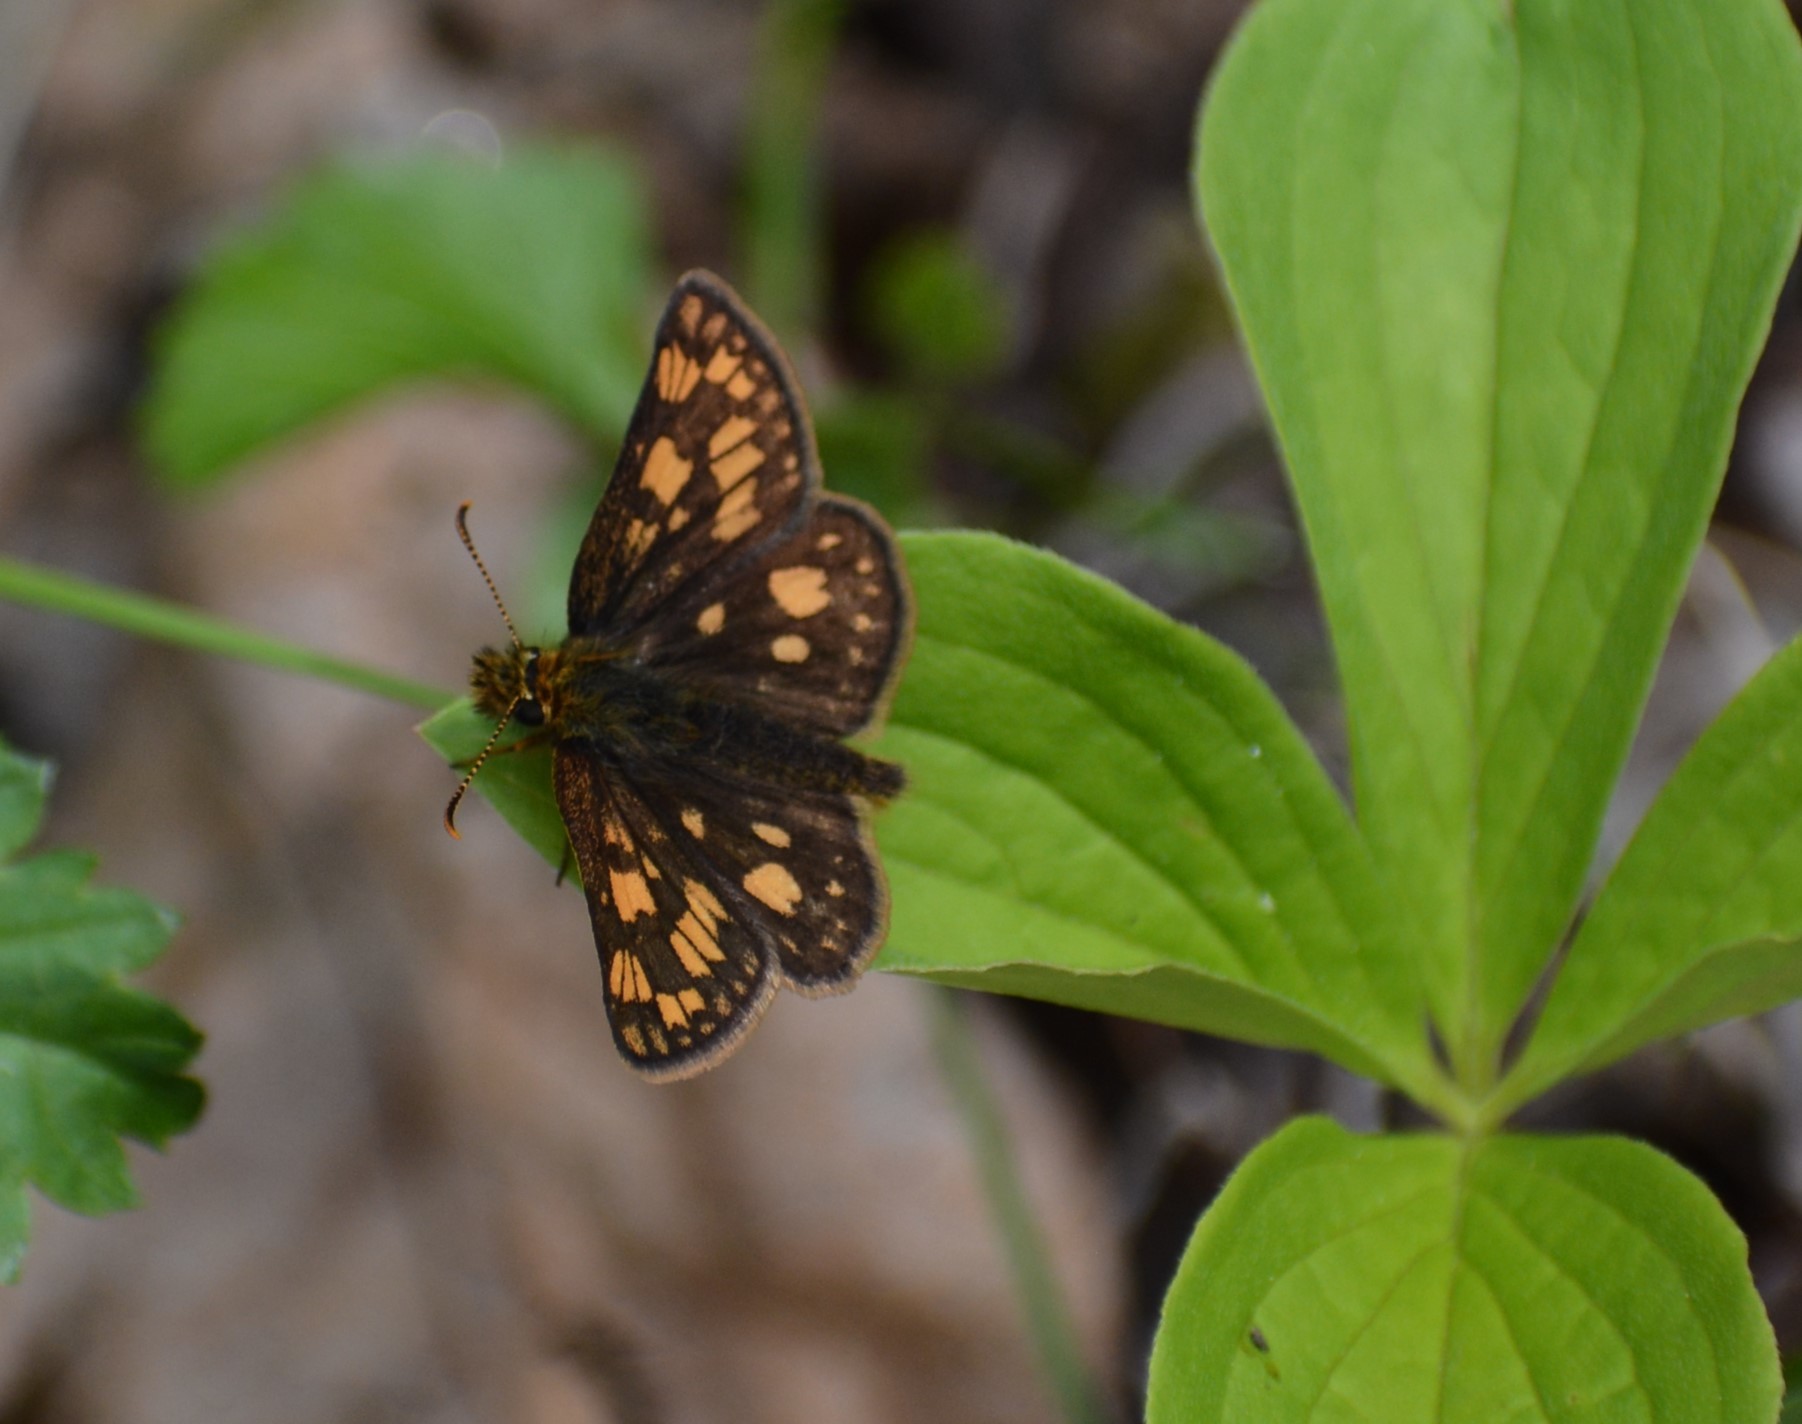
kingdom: Animalia
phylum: Arthropoda
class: Insecta
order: Lepidoptera
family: Hesperiidae
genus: Carterocephalus
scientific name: Carterocephalus skada
